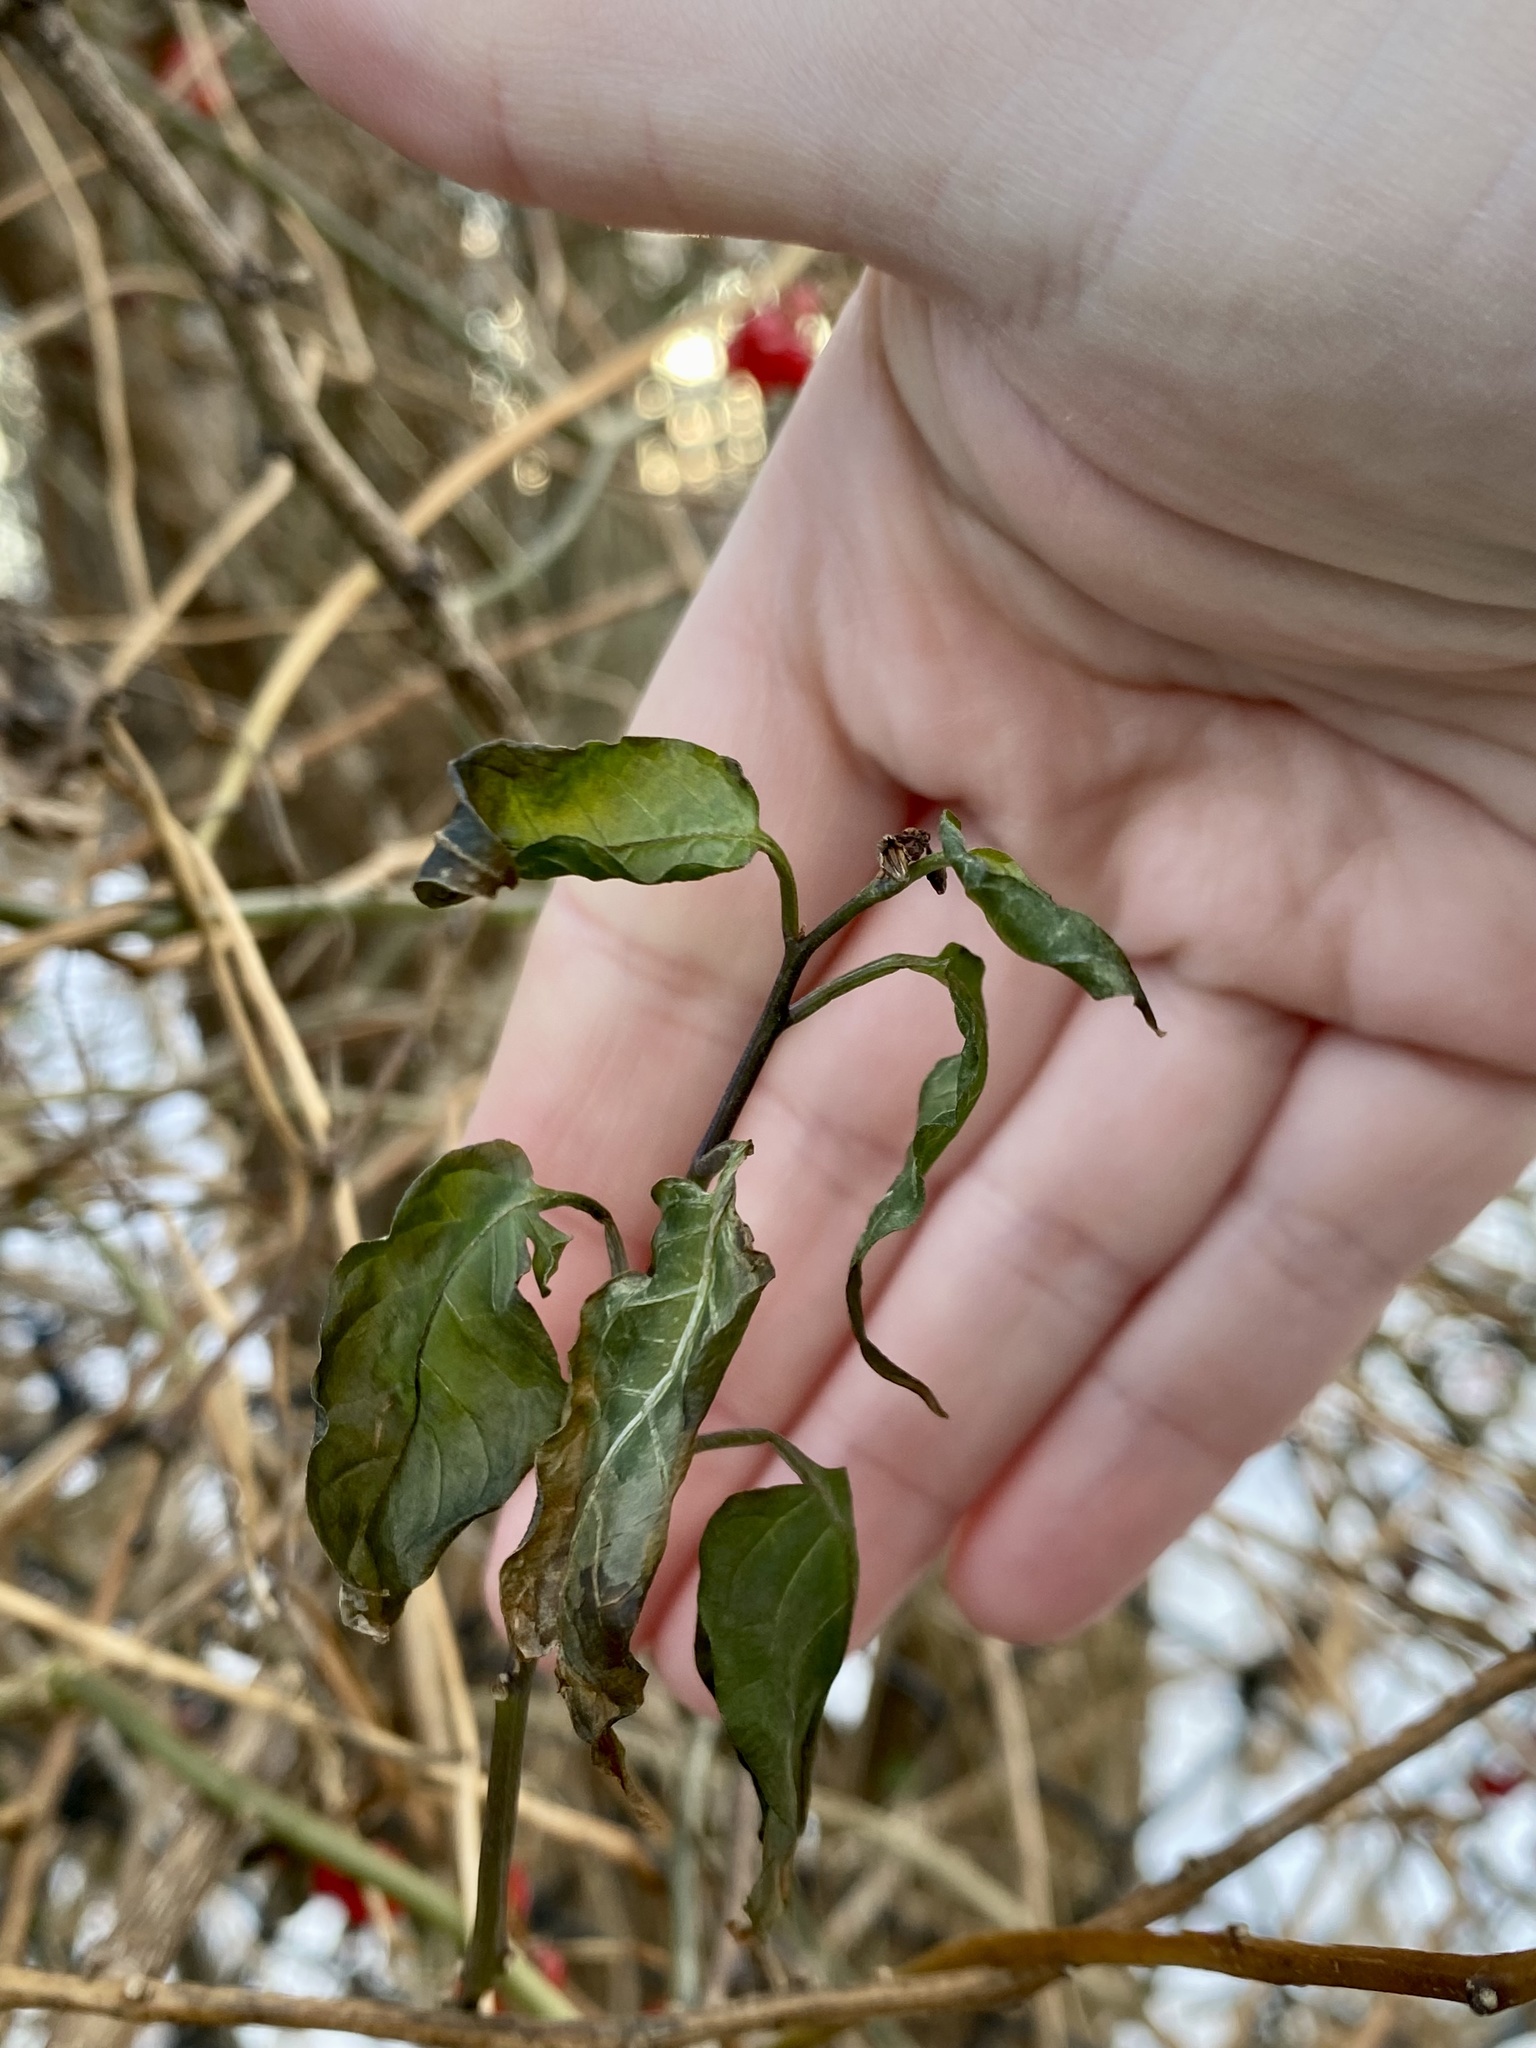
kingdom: Plantae
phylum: Tracheophyta
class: Magnoliopsida
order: Solanales
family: Solanaceae
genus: Solanum
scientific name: Solanum dulcamara
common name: Climbing nightshade
